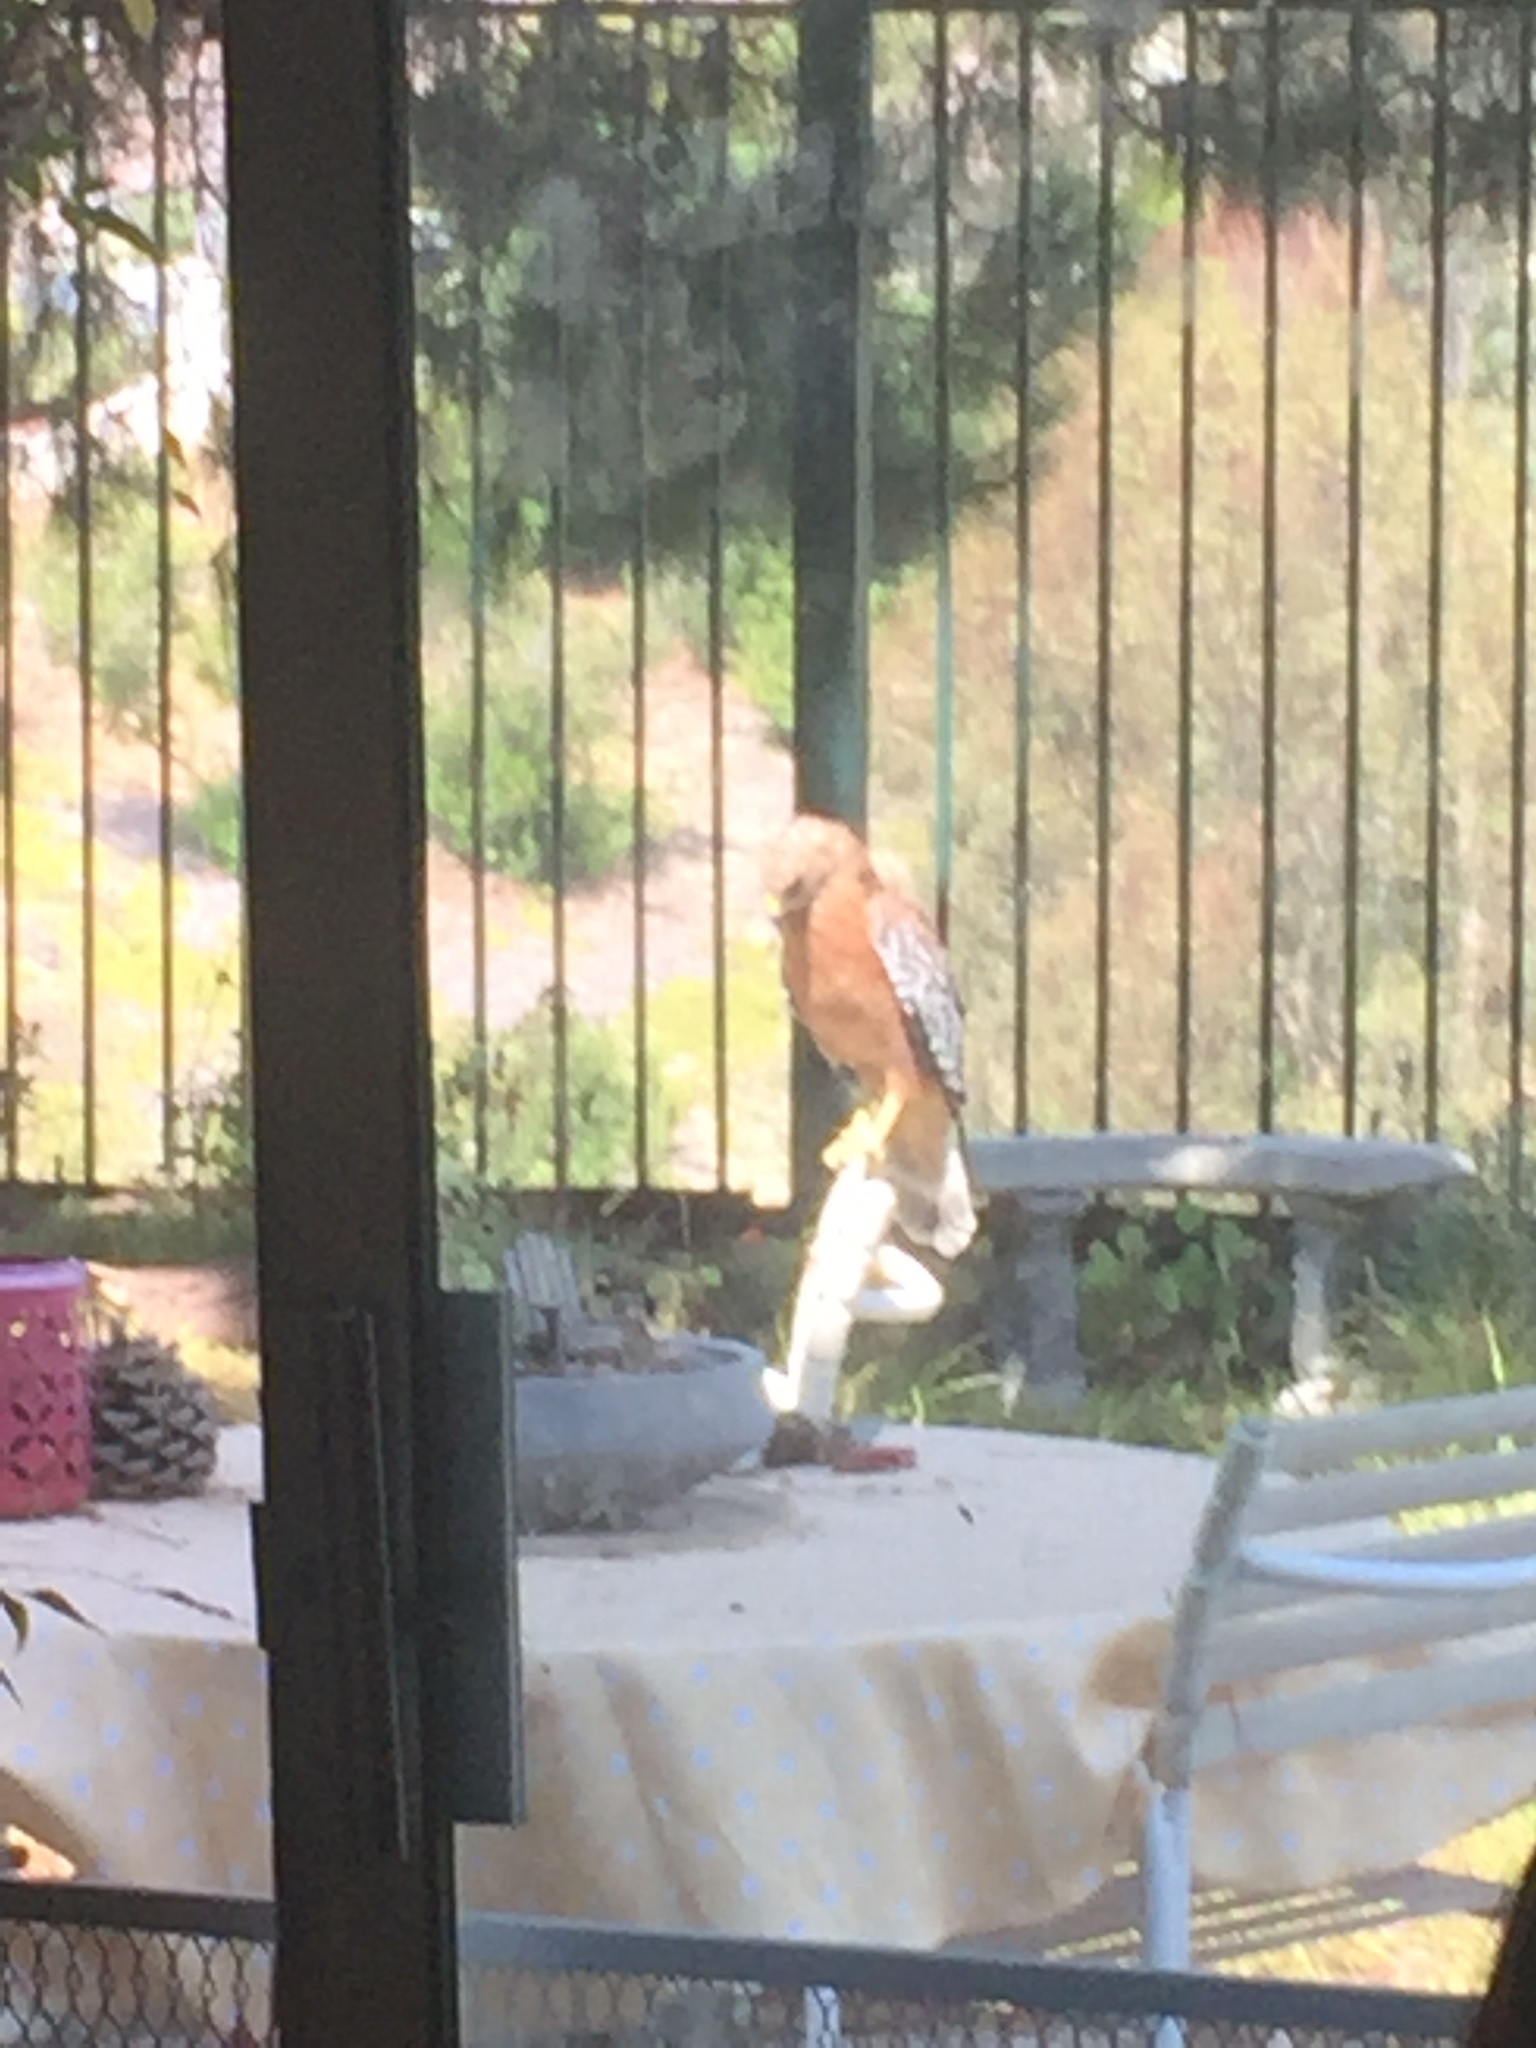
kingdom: Animalia
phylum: Chordata
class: Aves
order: Accipitriformes
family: Accipitridae
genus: Buteo
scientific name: Buteo lineatus
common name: Red-shouldered hawk
